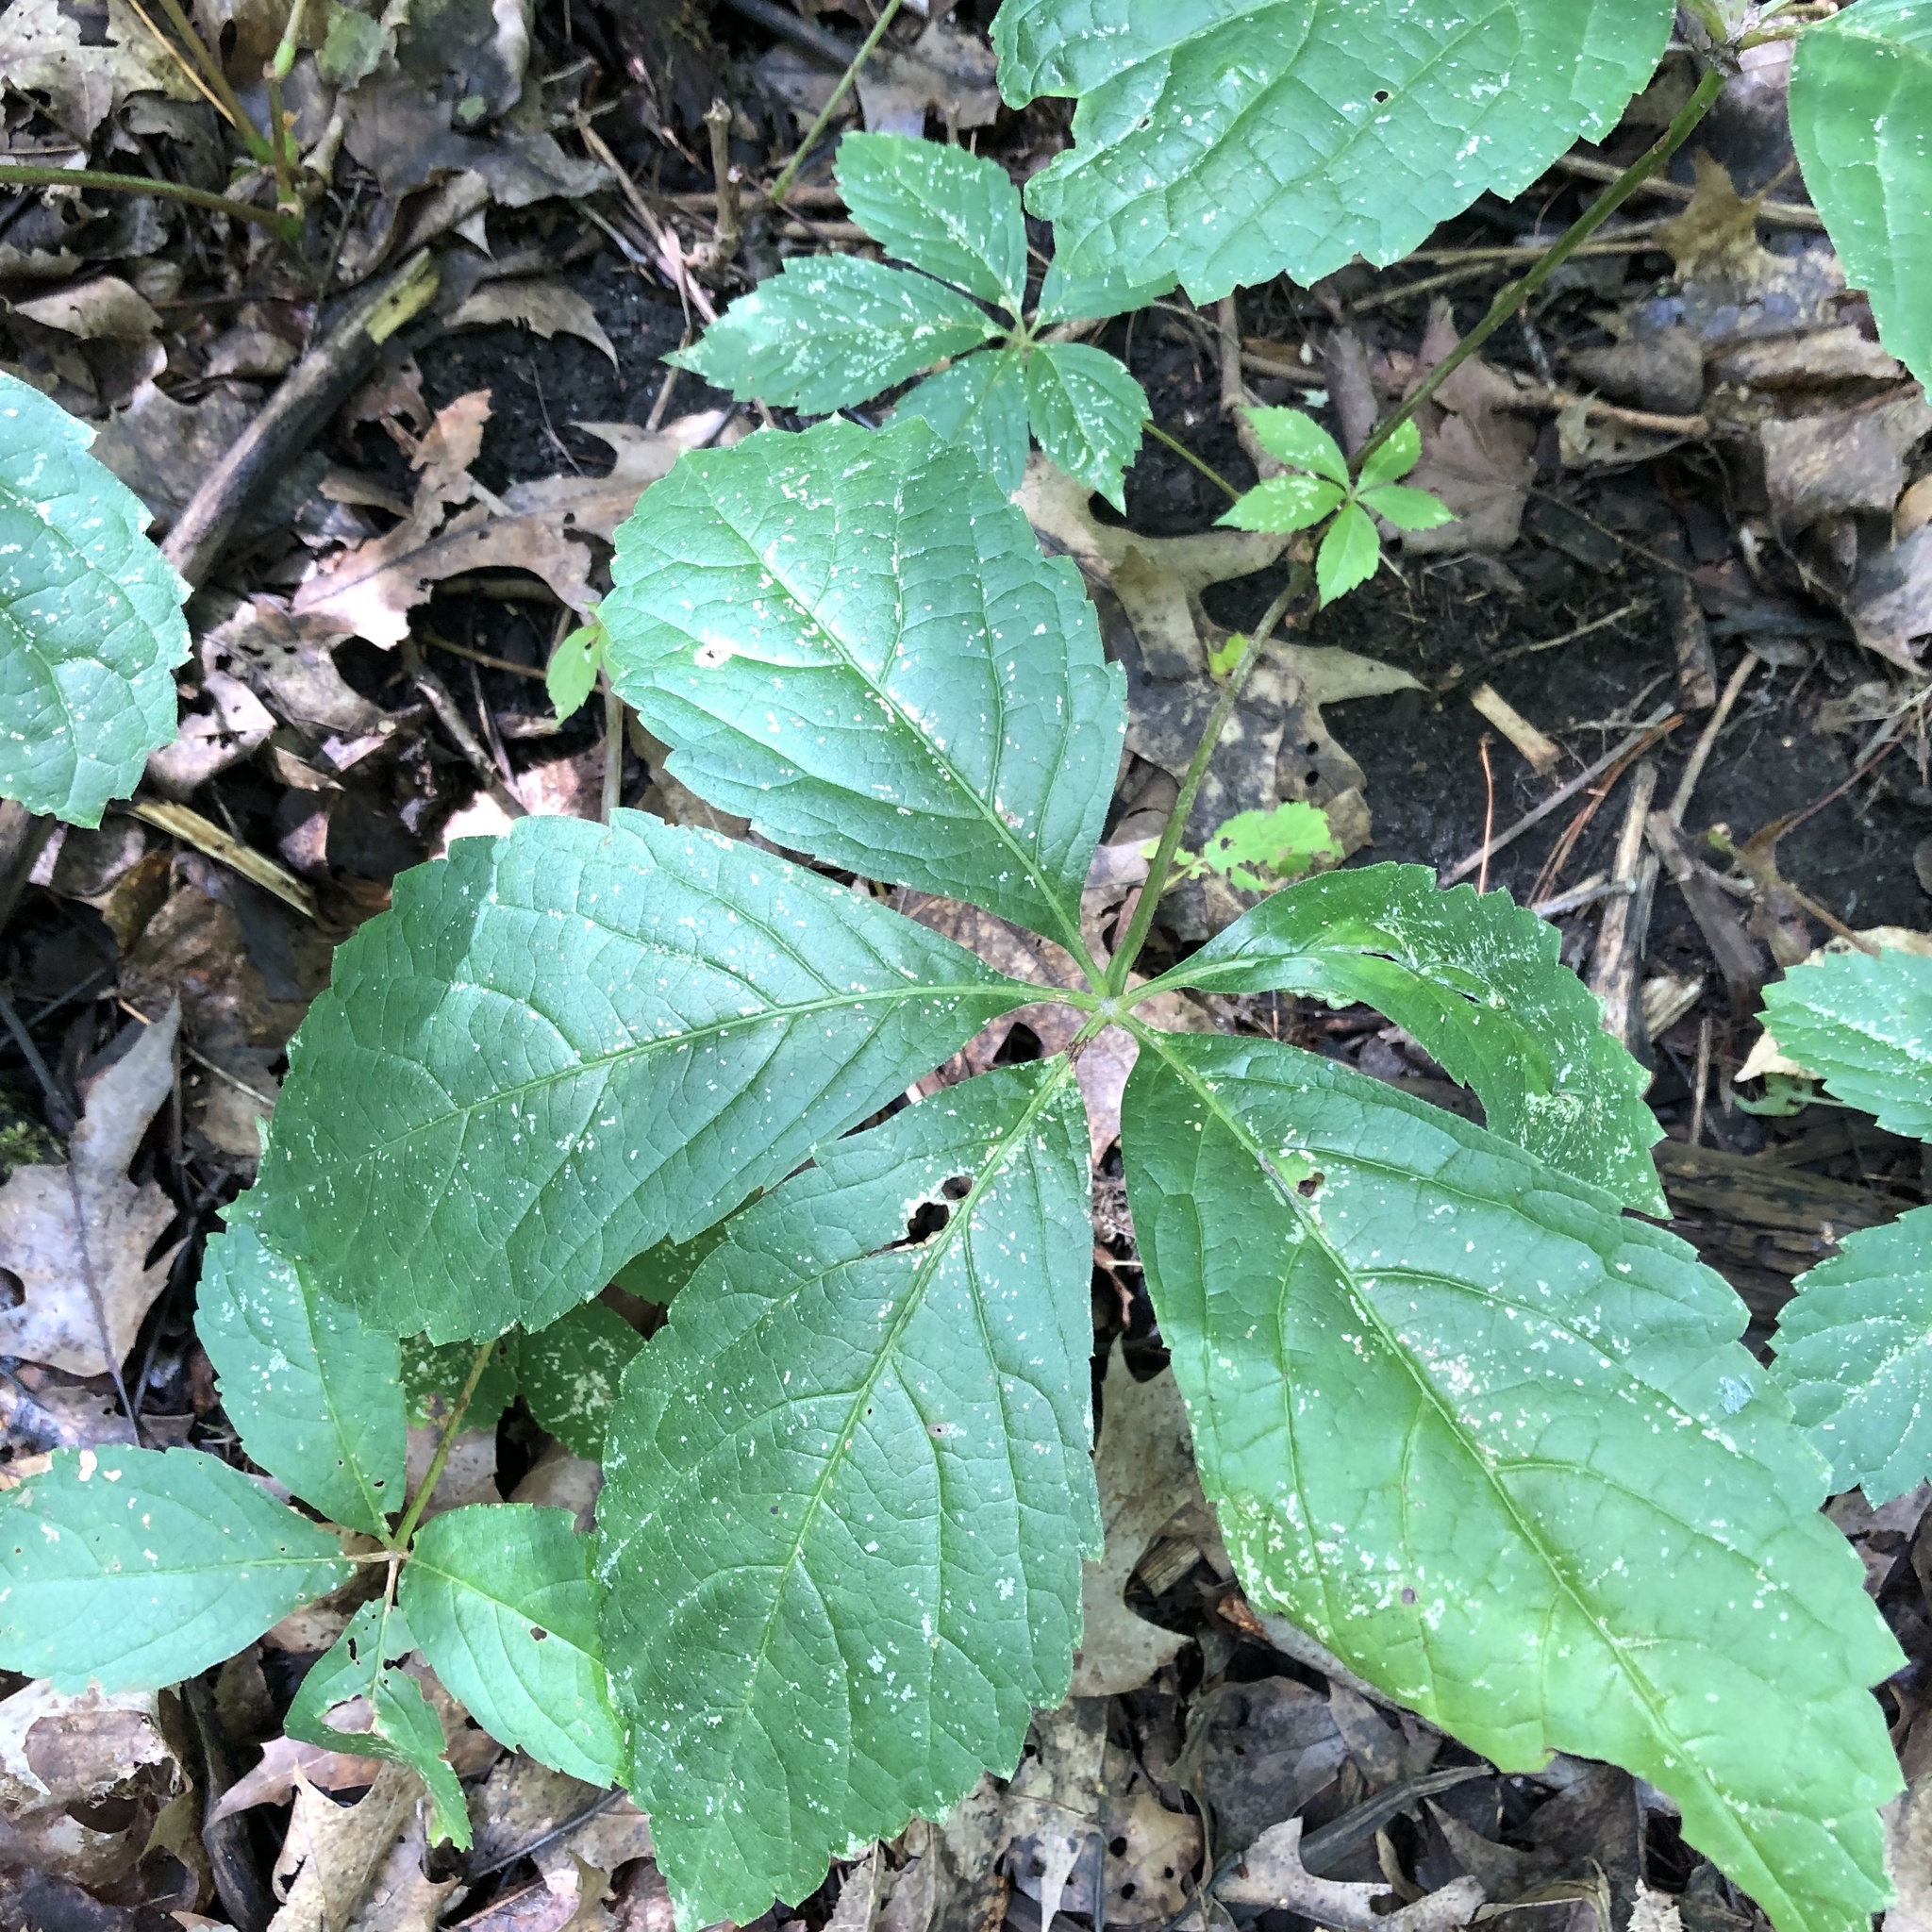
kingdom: Plantae
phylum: Tracheophyta
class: Magnoliopsida
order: Vitales
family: Vitaceae
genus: Parthenocissus
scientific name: Parthenocissus quinquefolia
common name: Virginia-creeper
